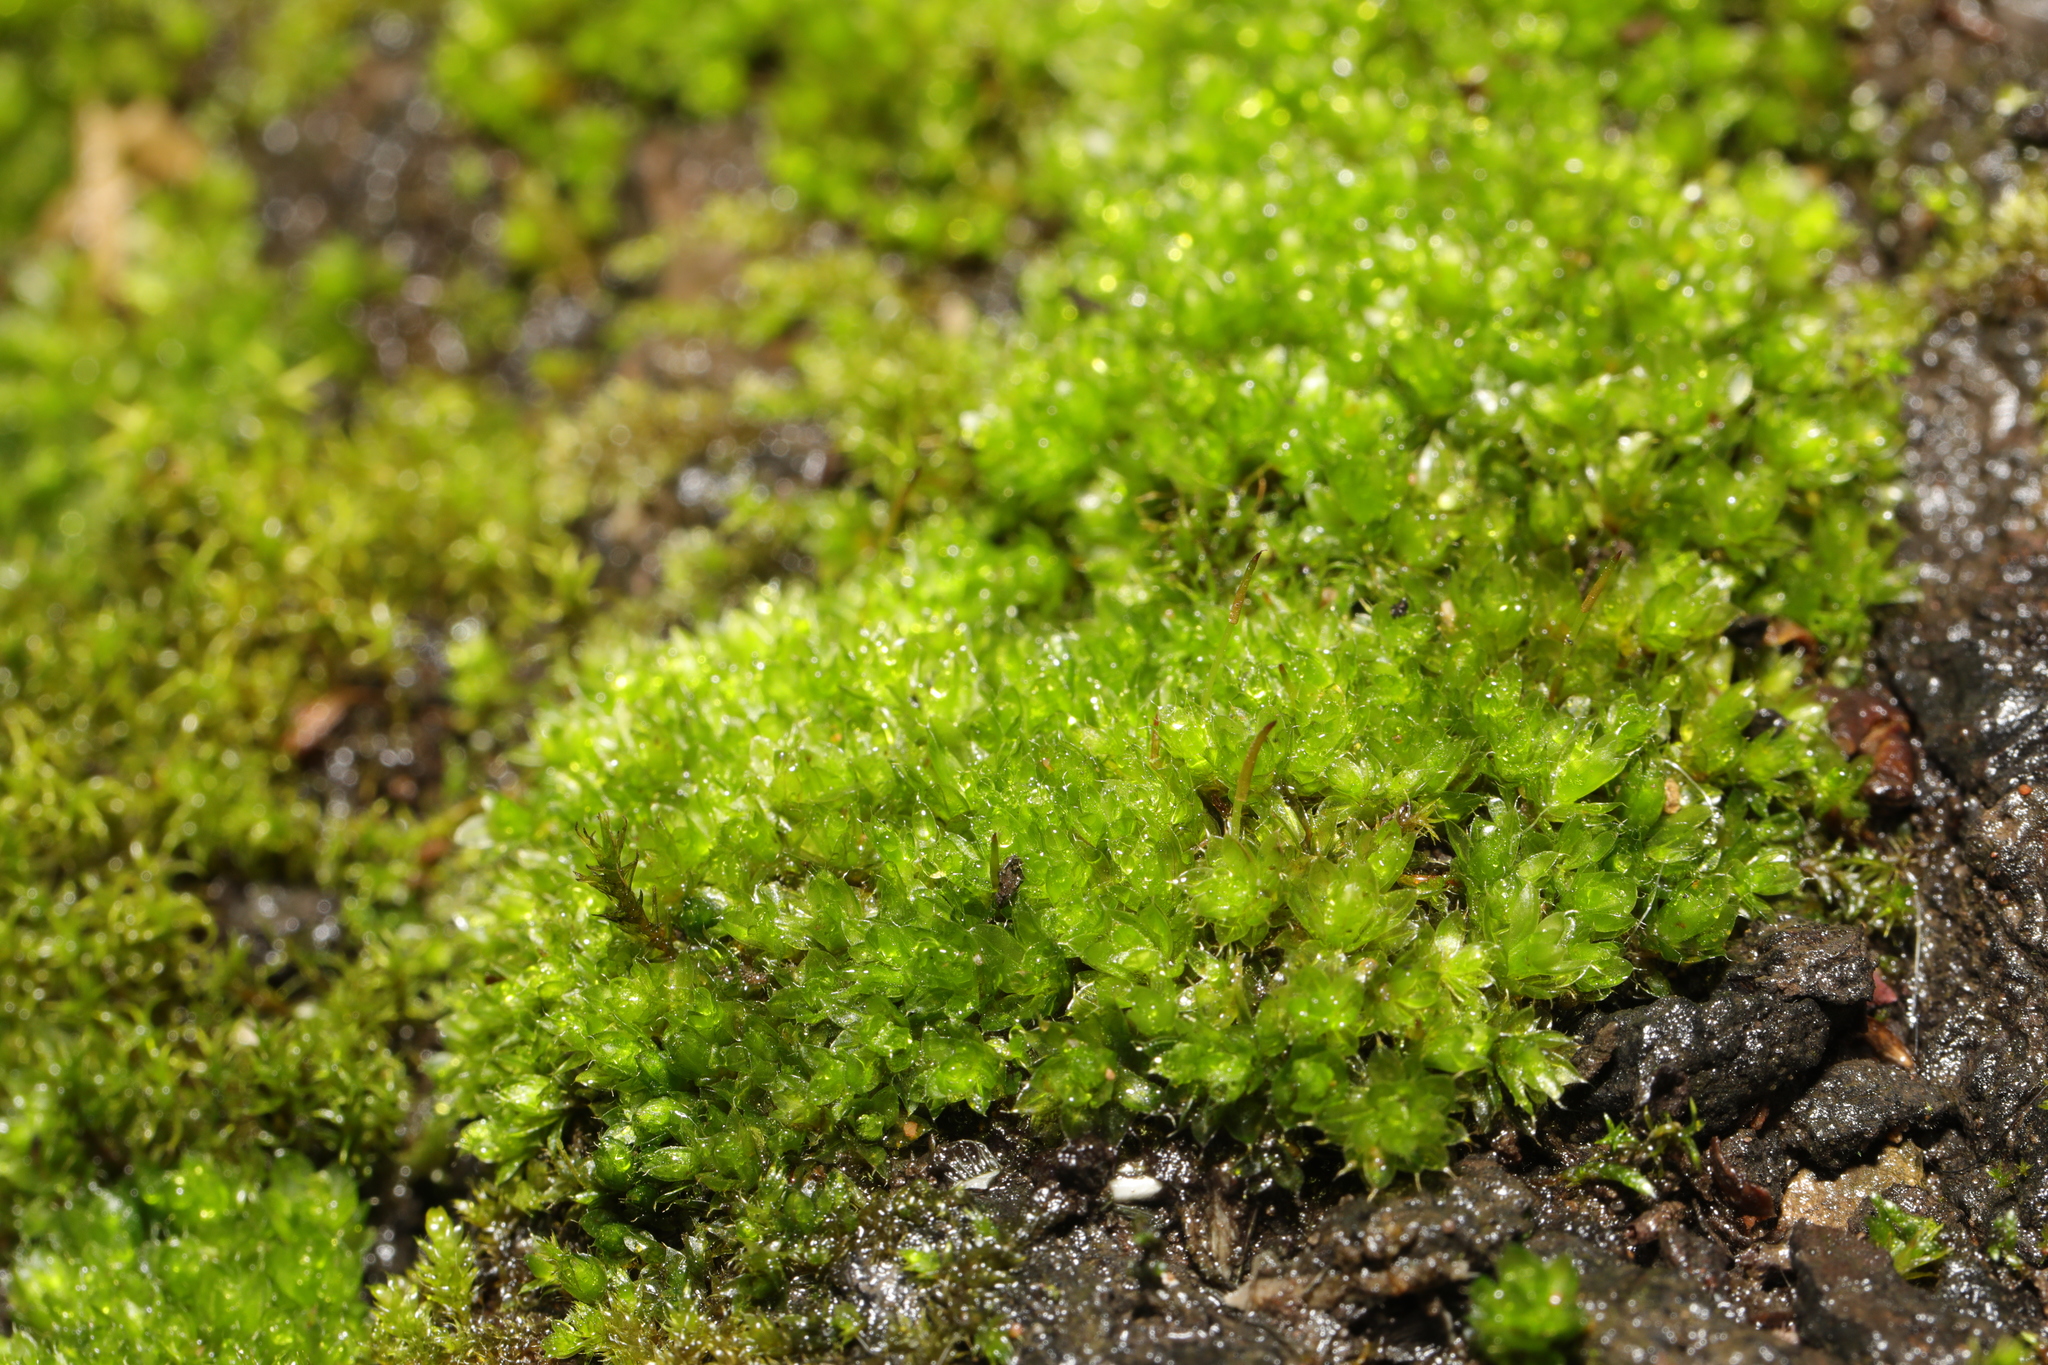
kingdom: Plantae
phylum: Bryophyta
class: Bryopsida
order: Bryales
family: Bryaceae
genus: Rosulabryum
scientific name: Rosulabryum capillare
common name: Capillary thread-moss
